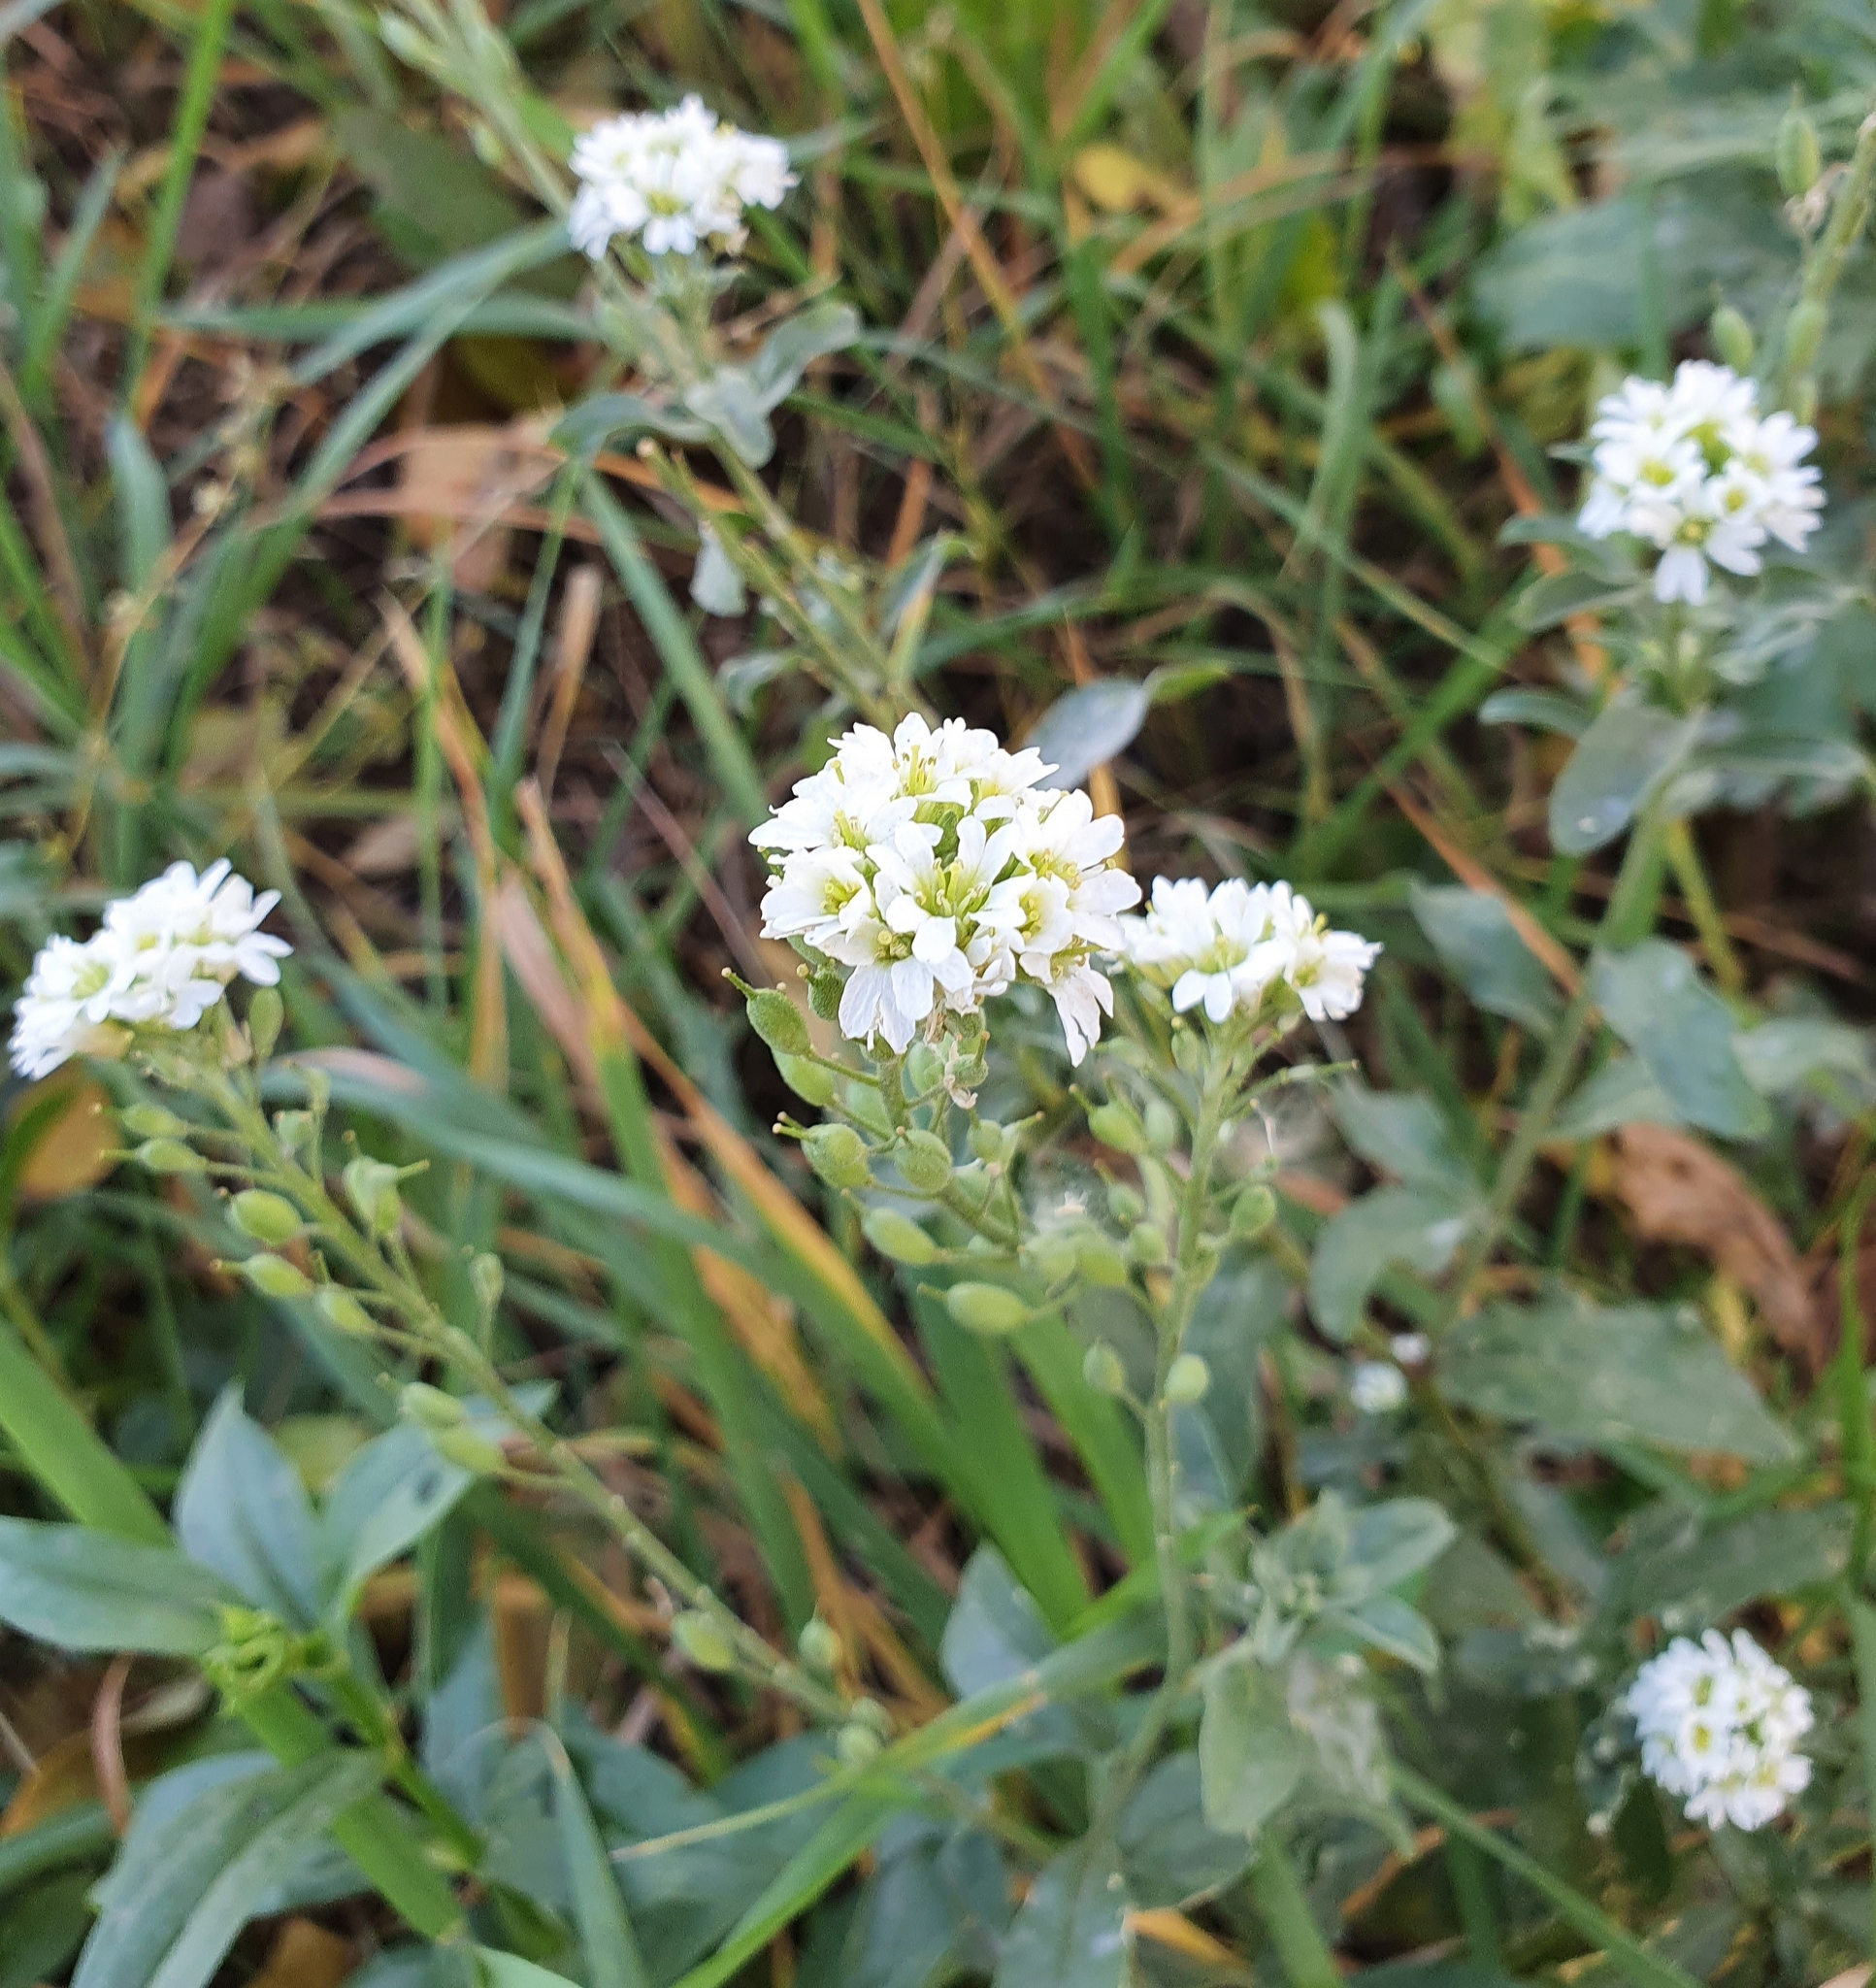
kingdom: Plantae
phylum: Tracheophyta
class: Magnoliopsida
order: Brassicales
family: Brassicaceae
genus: Berteroa
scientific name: Berteroa incana
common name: Hoary alison
